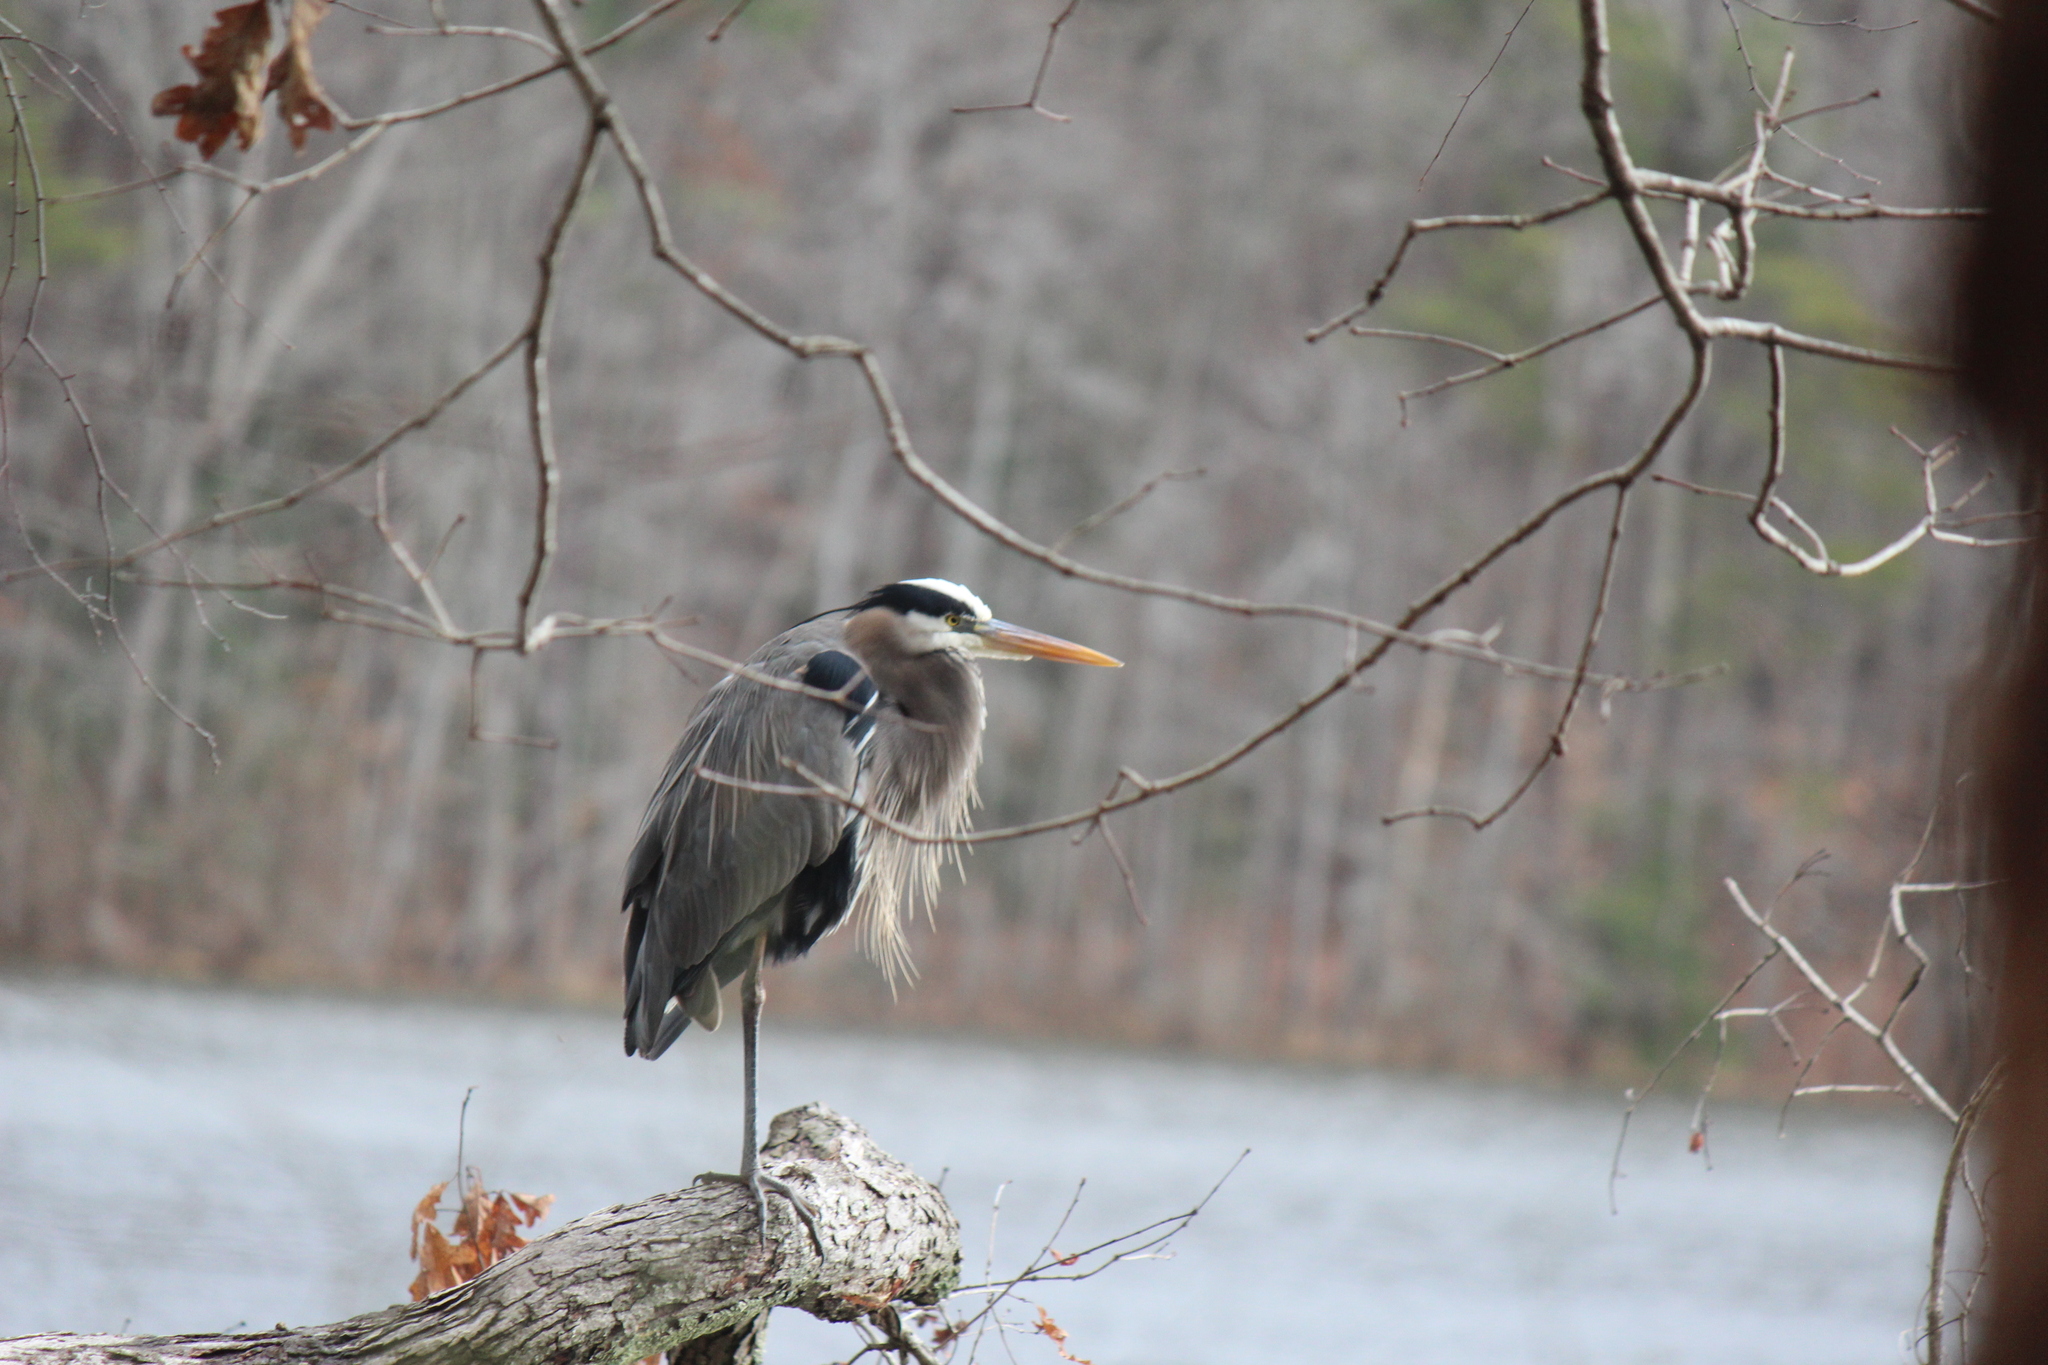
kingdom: Animalia
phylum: Chordata
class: Aves
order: Pelecaniformes
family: Ardeidae
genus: Ardea
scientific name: Ardea herodias
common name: Great blue heron
